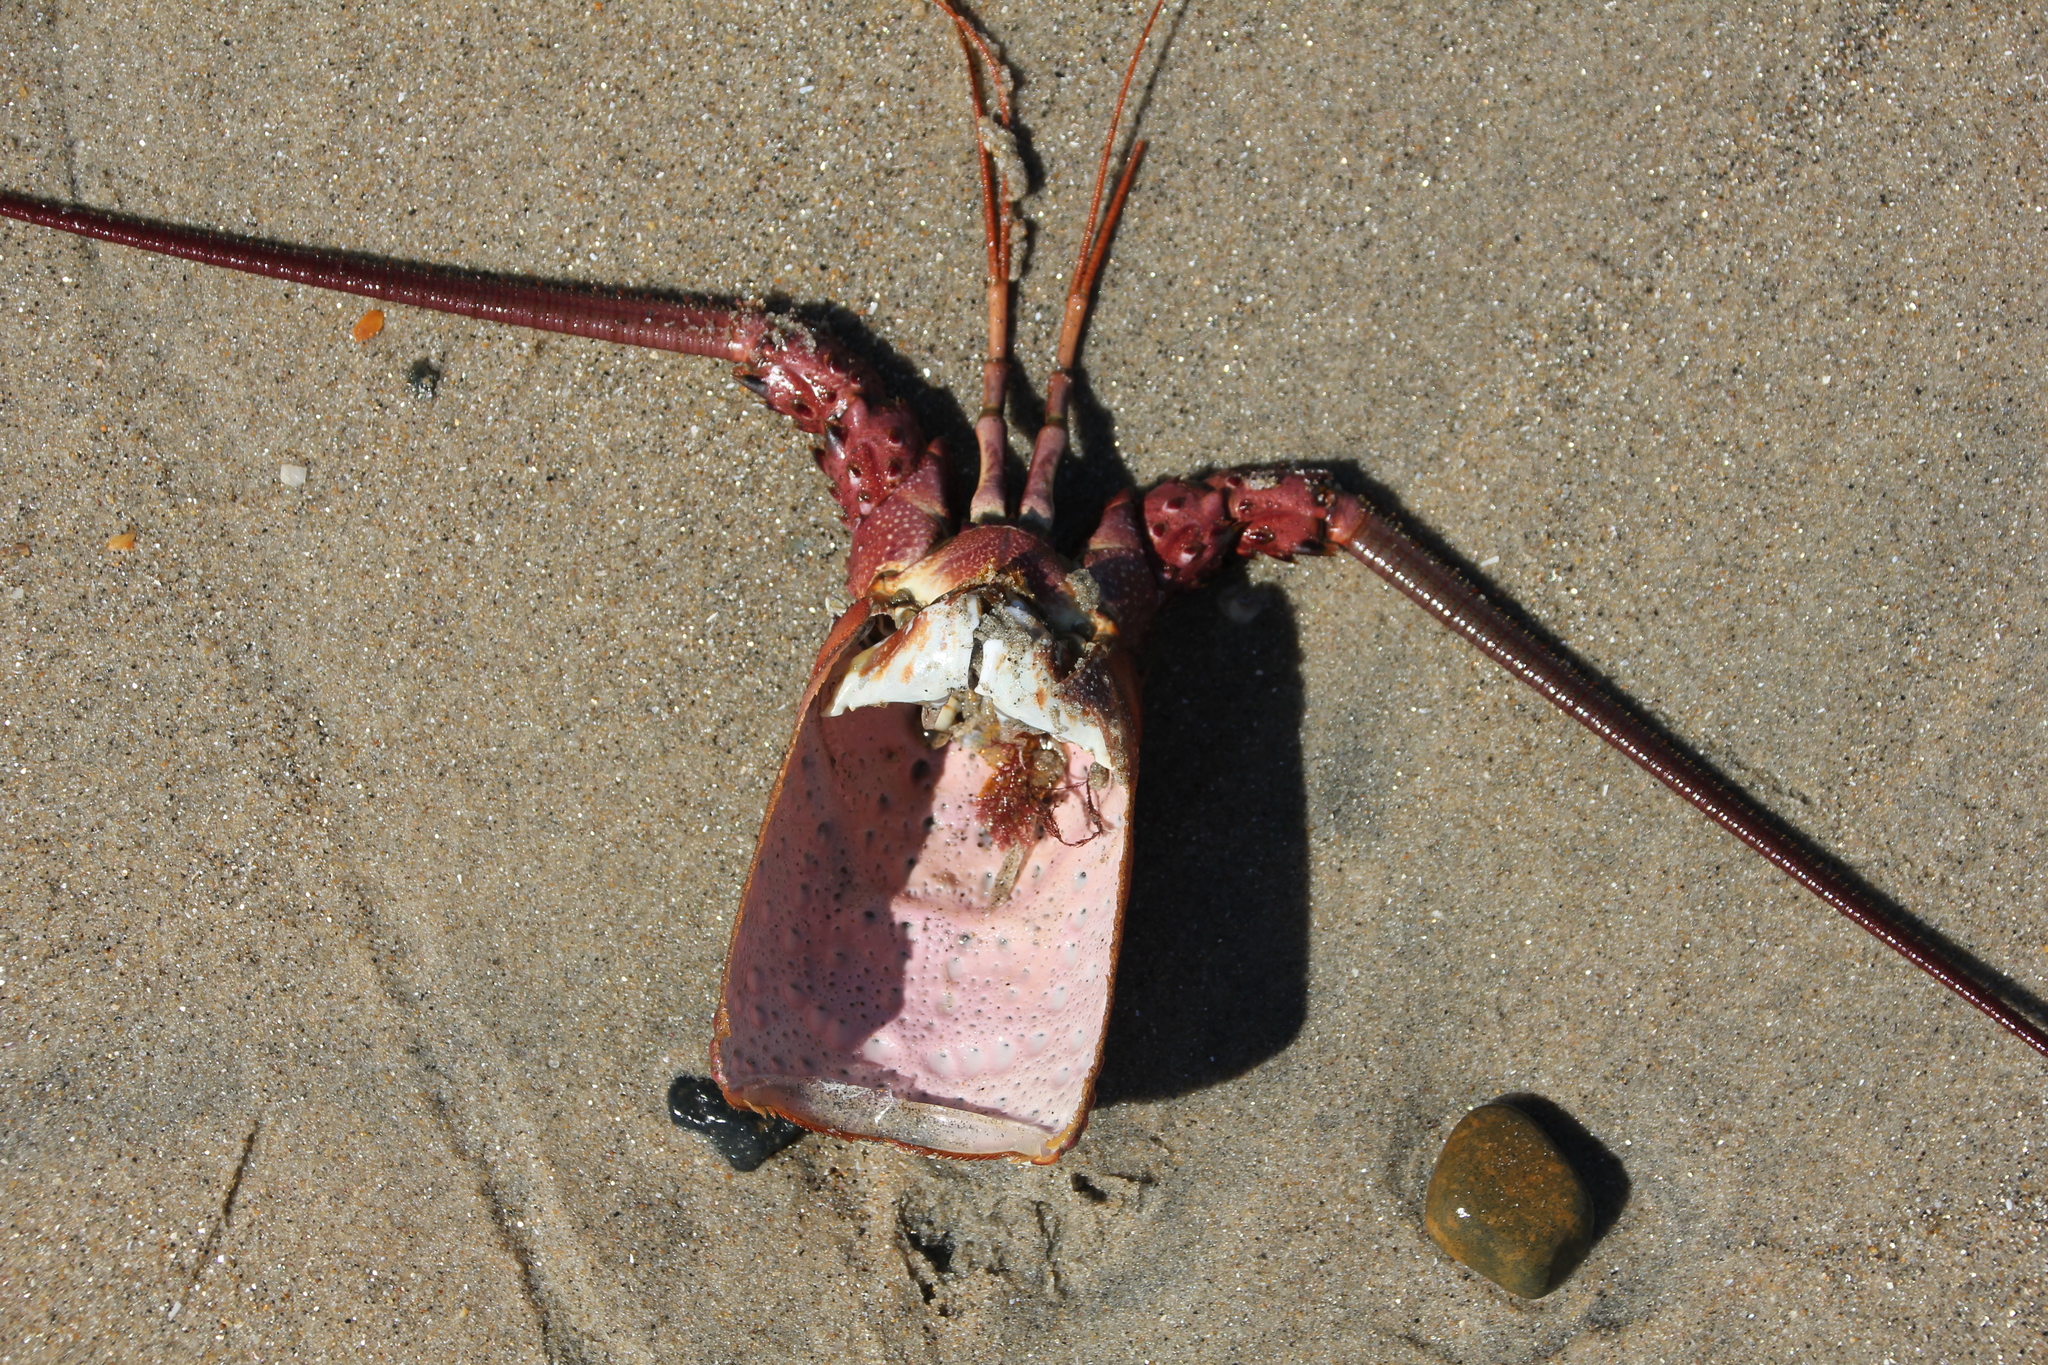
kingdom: Animalia
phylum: Arthropoda
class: Malacostraca
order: Decapoda
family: Palinuridae
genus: Panulirus
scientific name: Panulirus interruptus
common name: California spiny lobster
